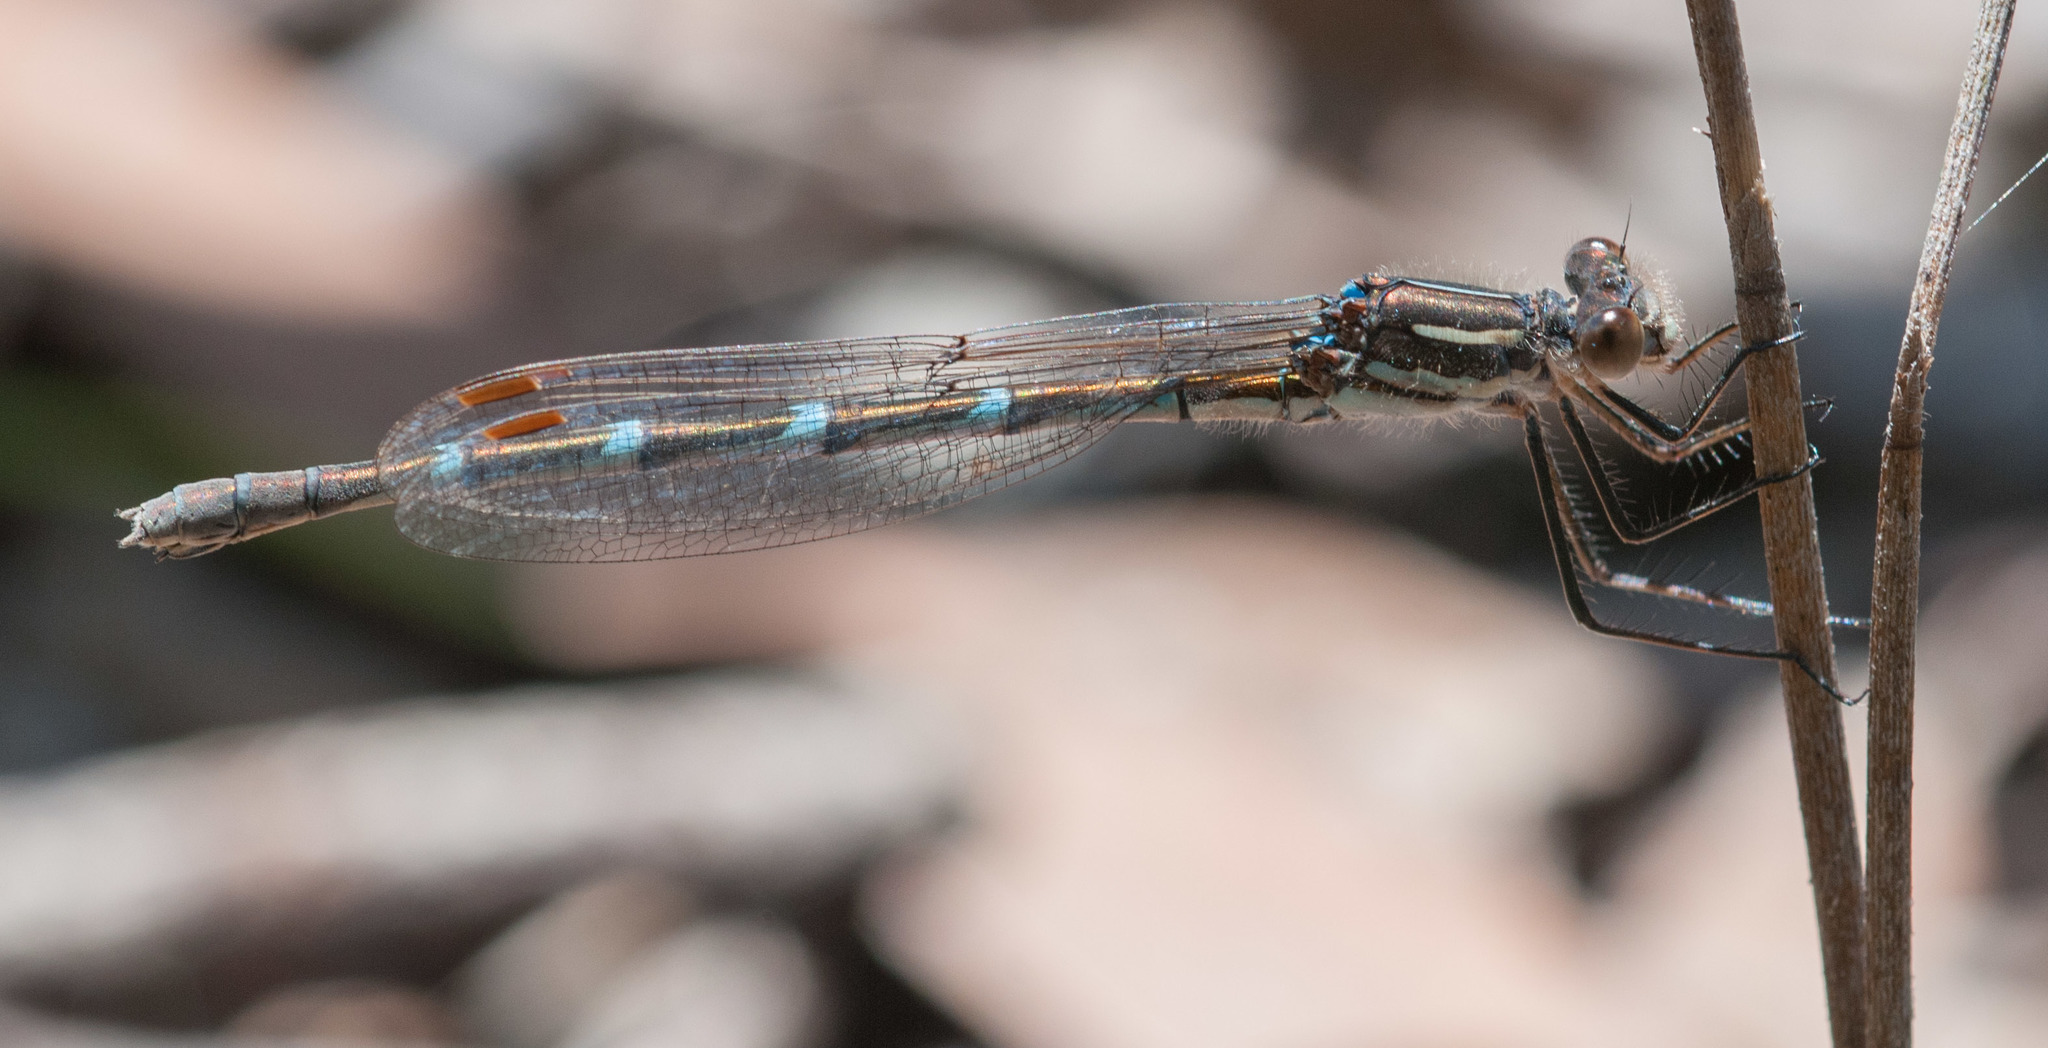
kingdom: Animalia
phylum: Arthropoda
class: Insecta
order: Odonata
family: Lestidae
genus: Austrolestes
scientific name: Austrolestes annulosus
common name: Blue ringtail
